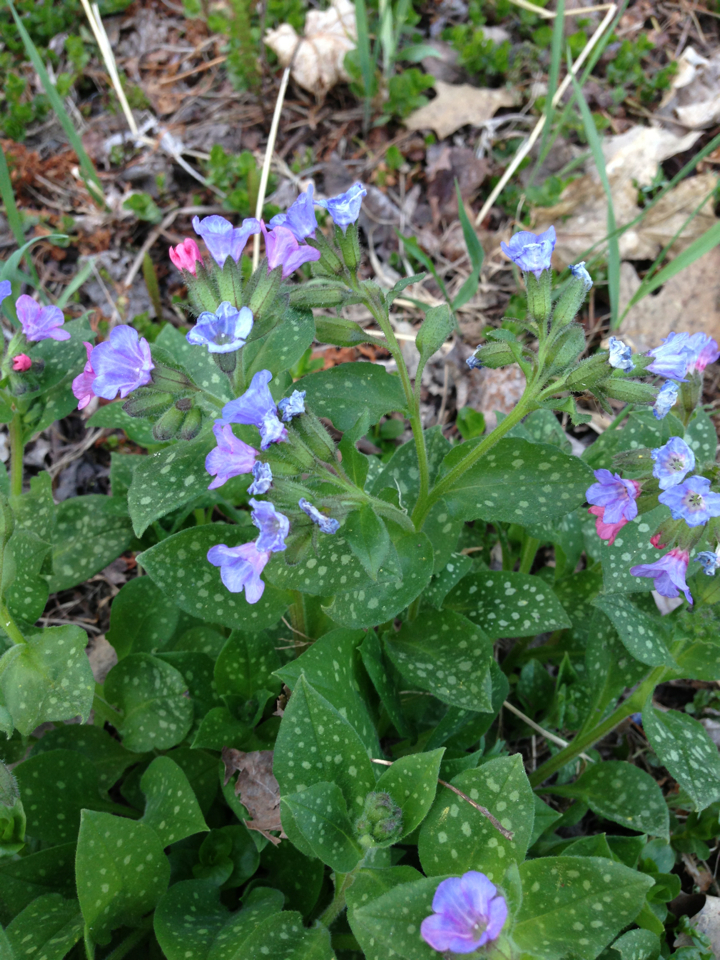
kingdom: Plantae
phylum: Tracheophyta
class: Magnoliopsida
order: Boraginales
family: Boraginaceae
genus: Pulmonaria
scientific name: Pulmonaria officinalis
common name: Lungwort
